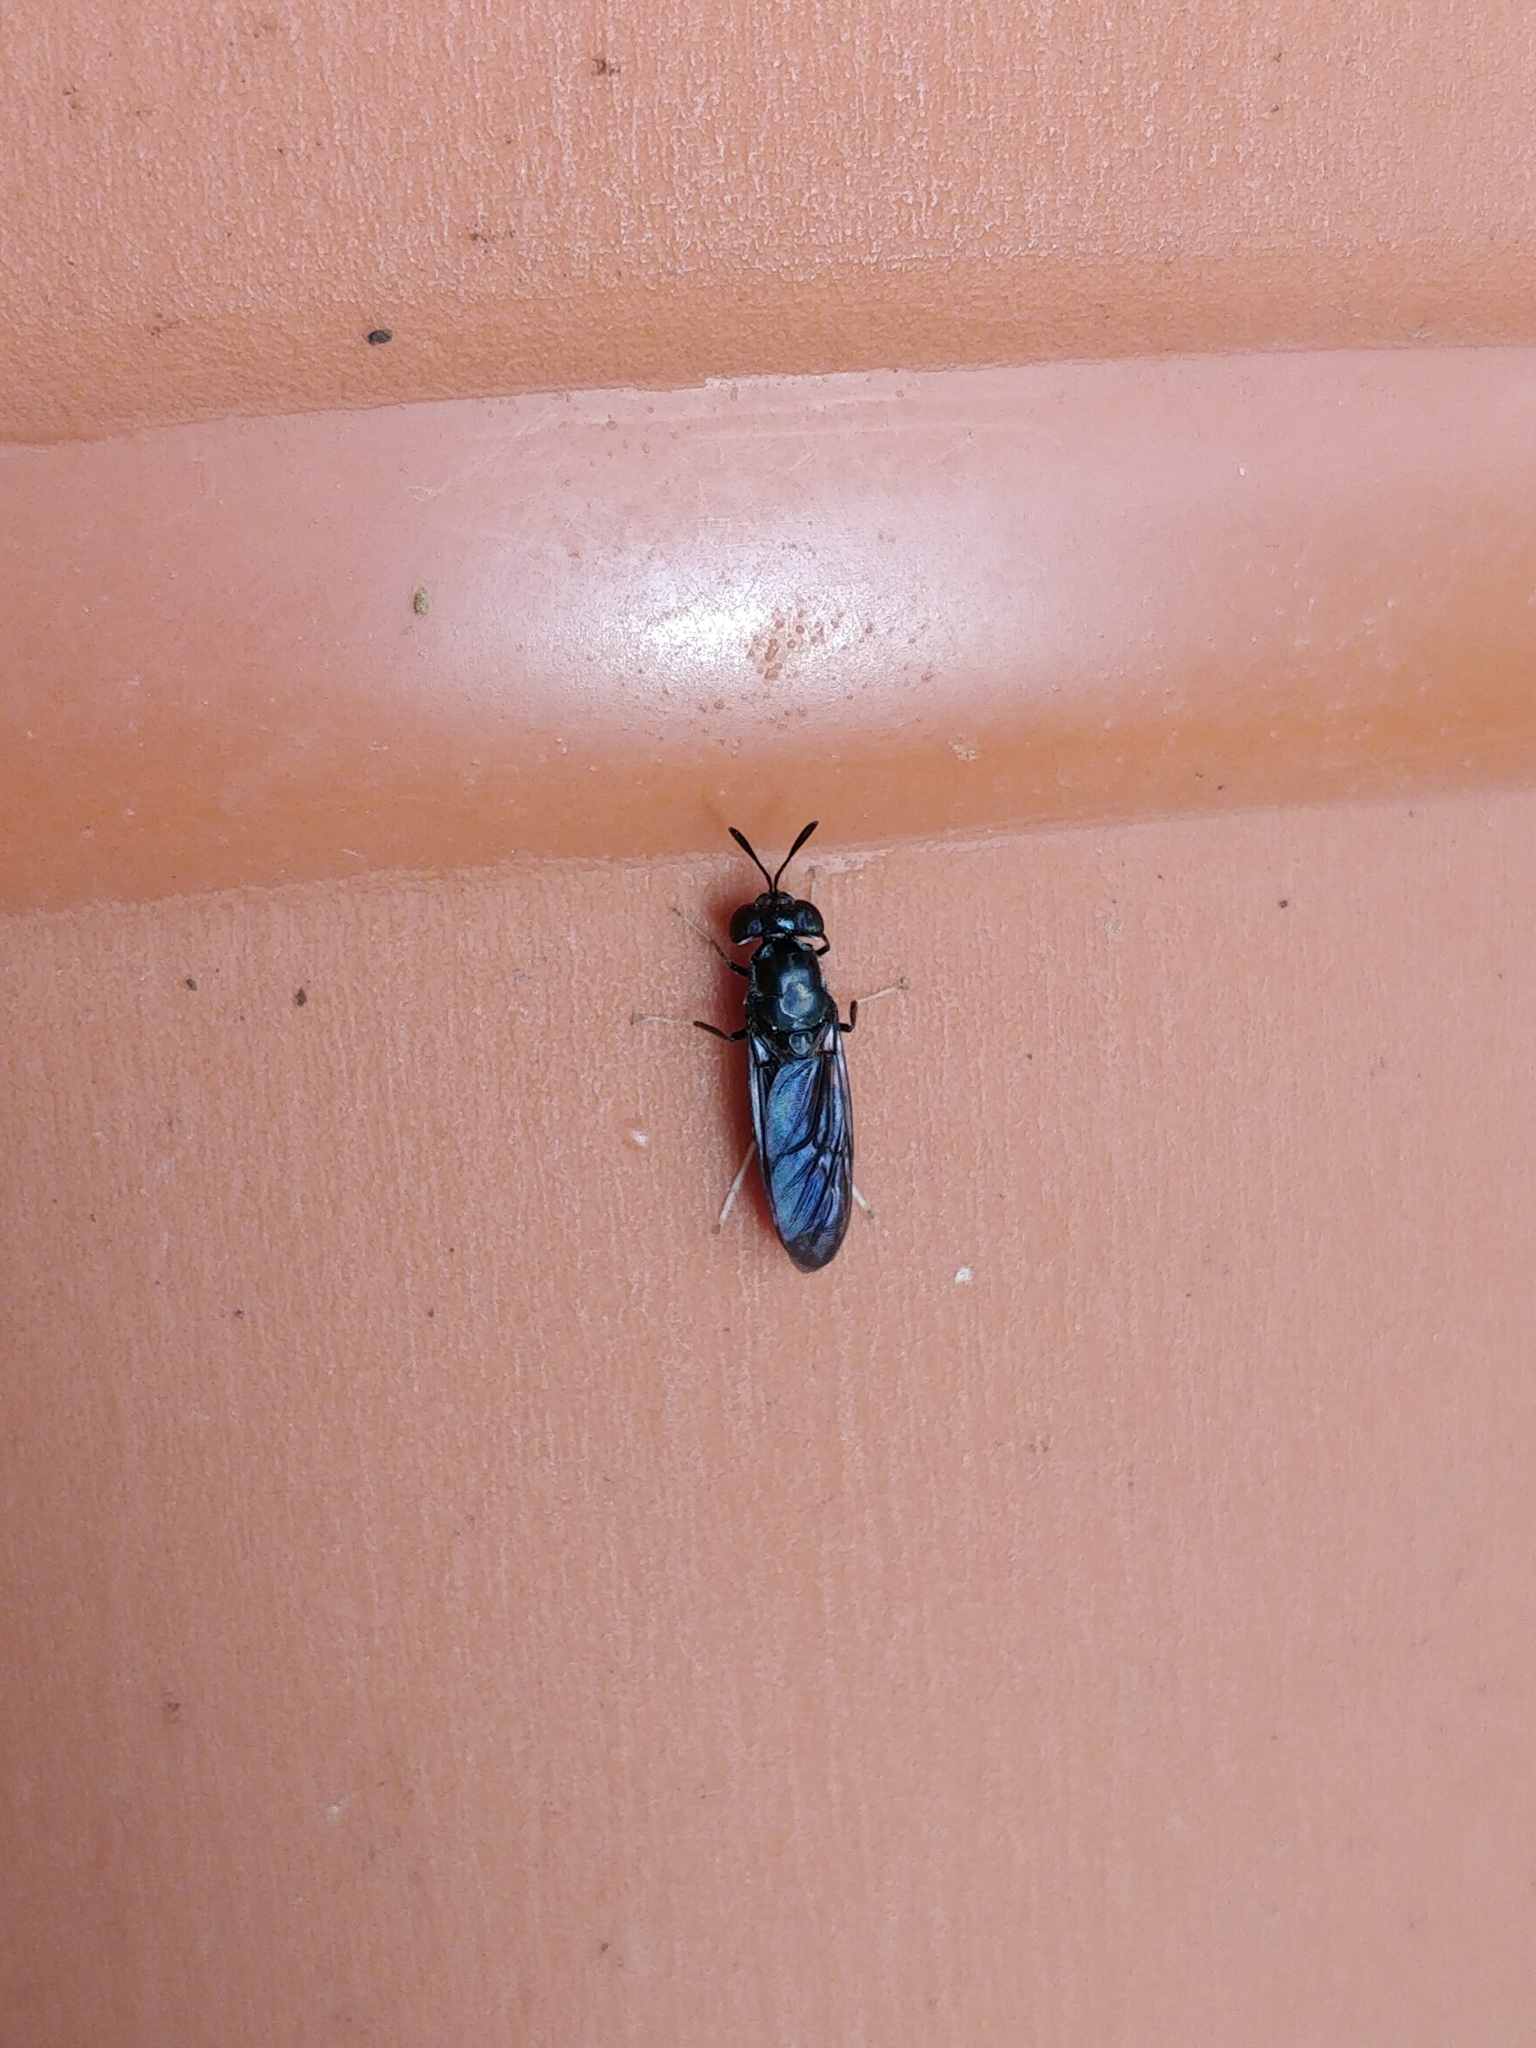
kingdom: Animalia
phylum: Arthropoda
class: Insecta
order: Diptera
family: Stratiomyidae
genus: Hermetia
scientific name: Hermetia illucens
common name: Black soldier fly
